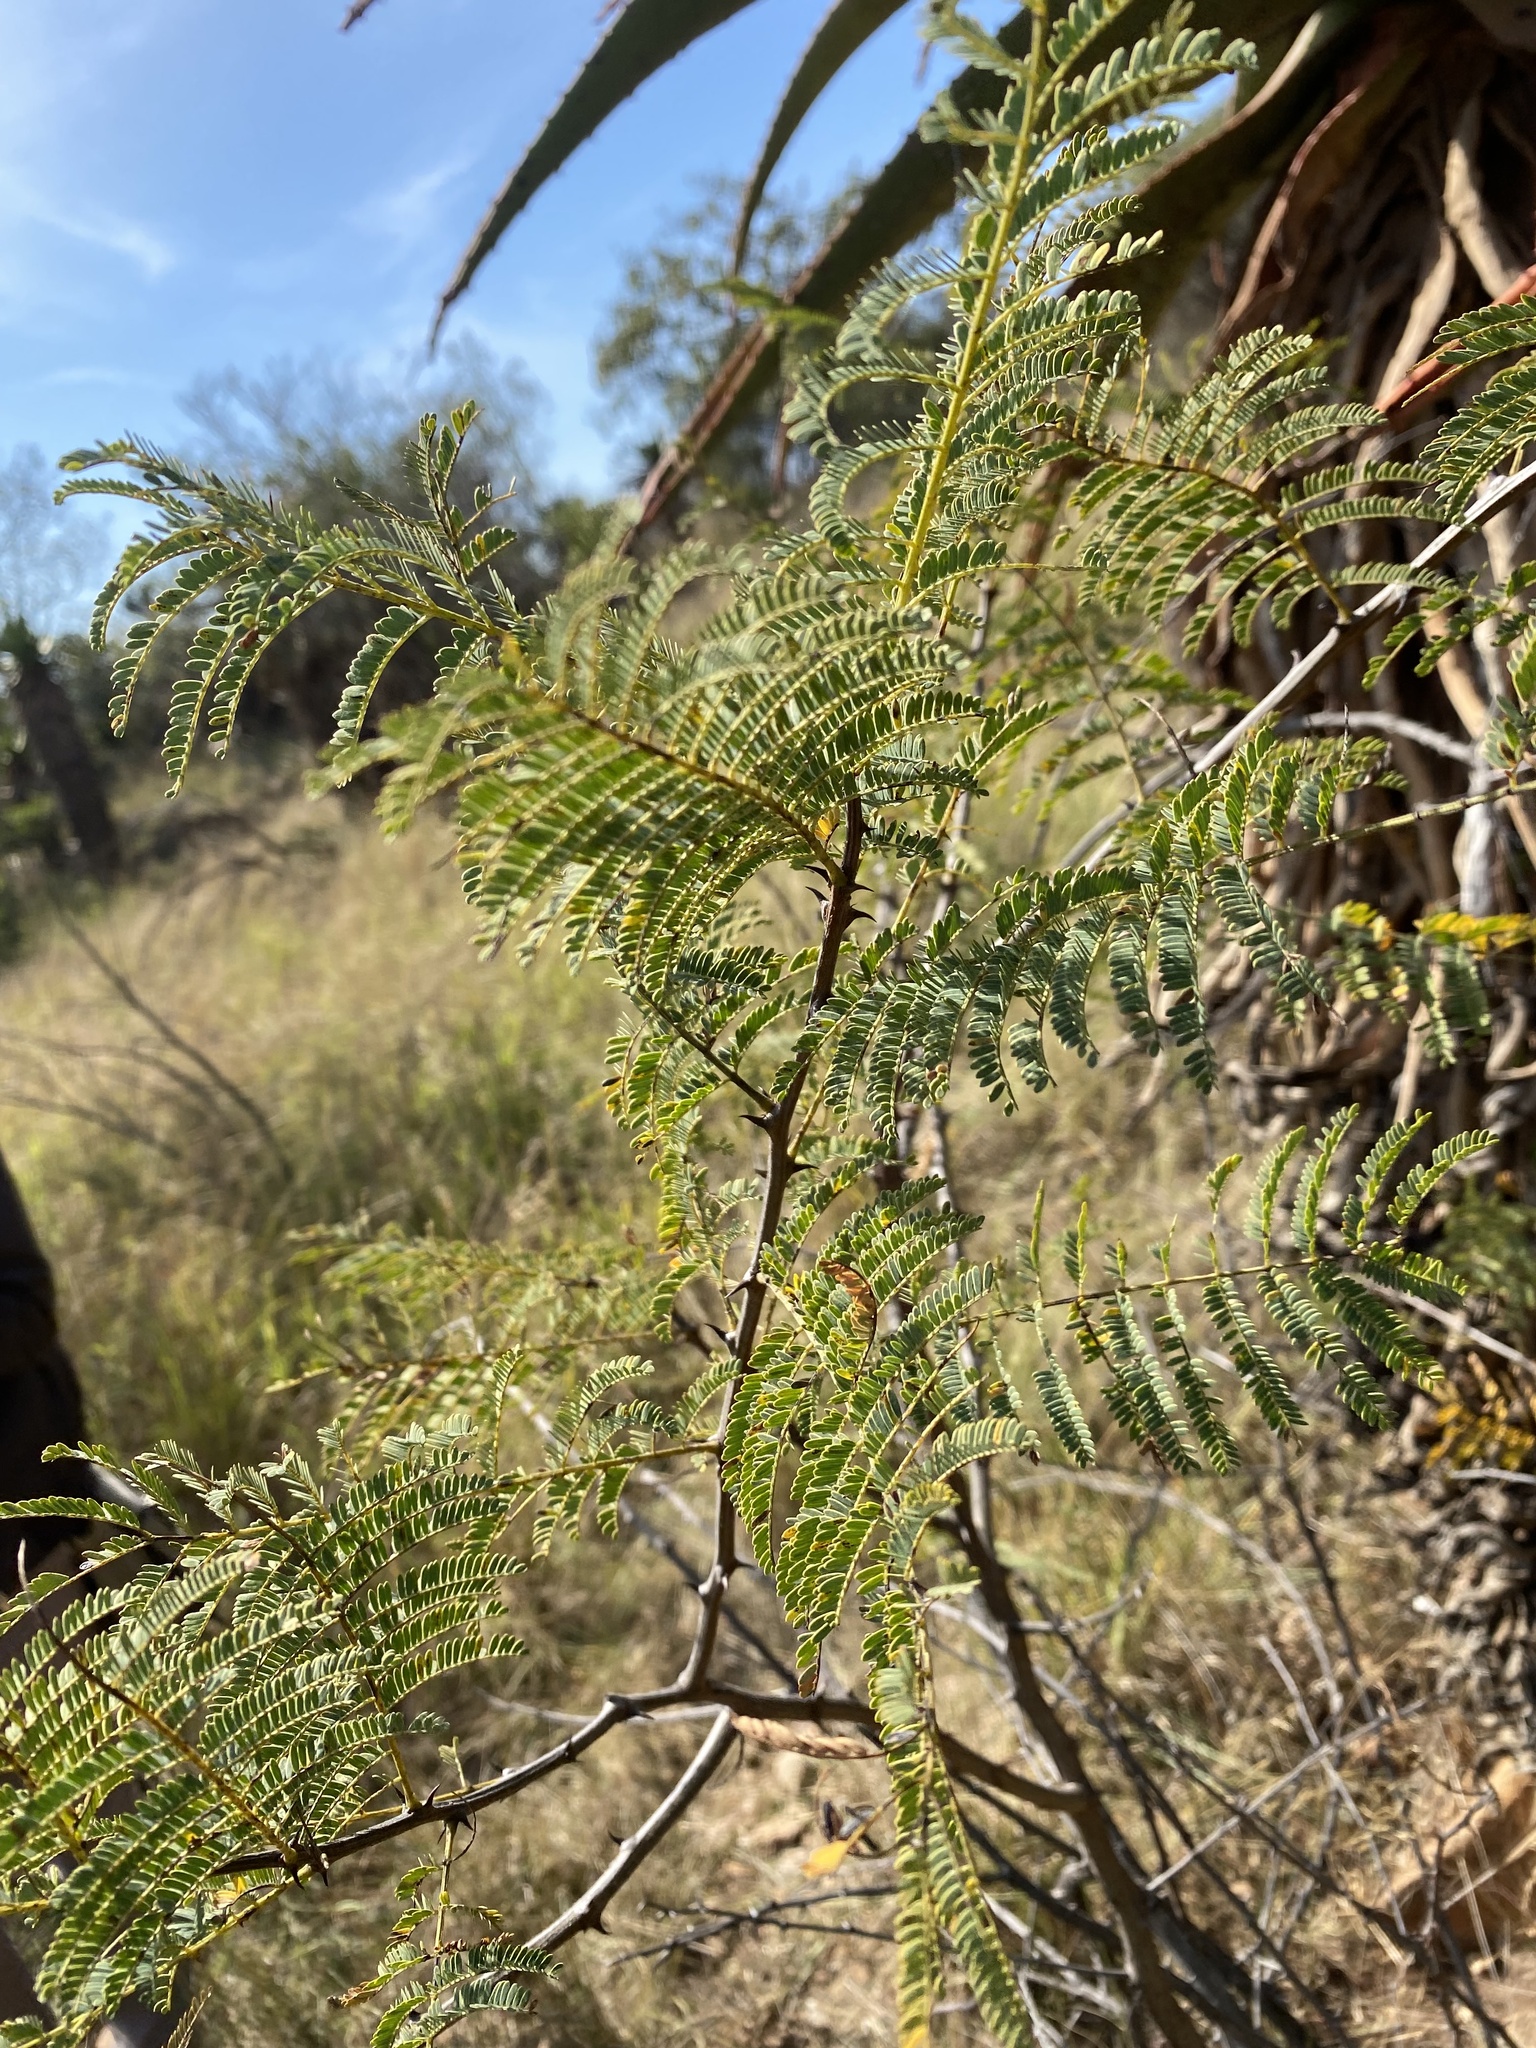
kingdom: Plantae
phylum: Tracheophyta
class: Magnoliopsida
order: Fabales
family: Fabaceae
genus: Senegalia
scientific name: Senegalia caffra
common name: Cat thorn
